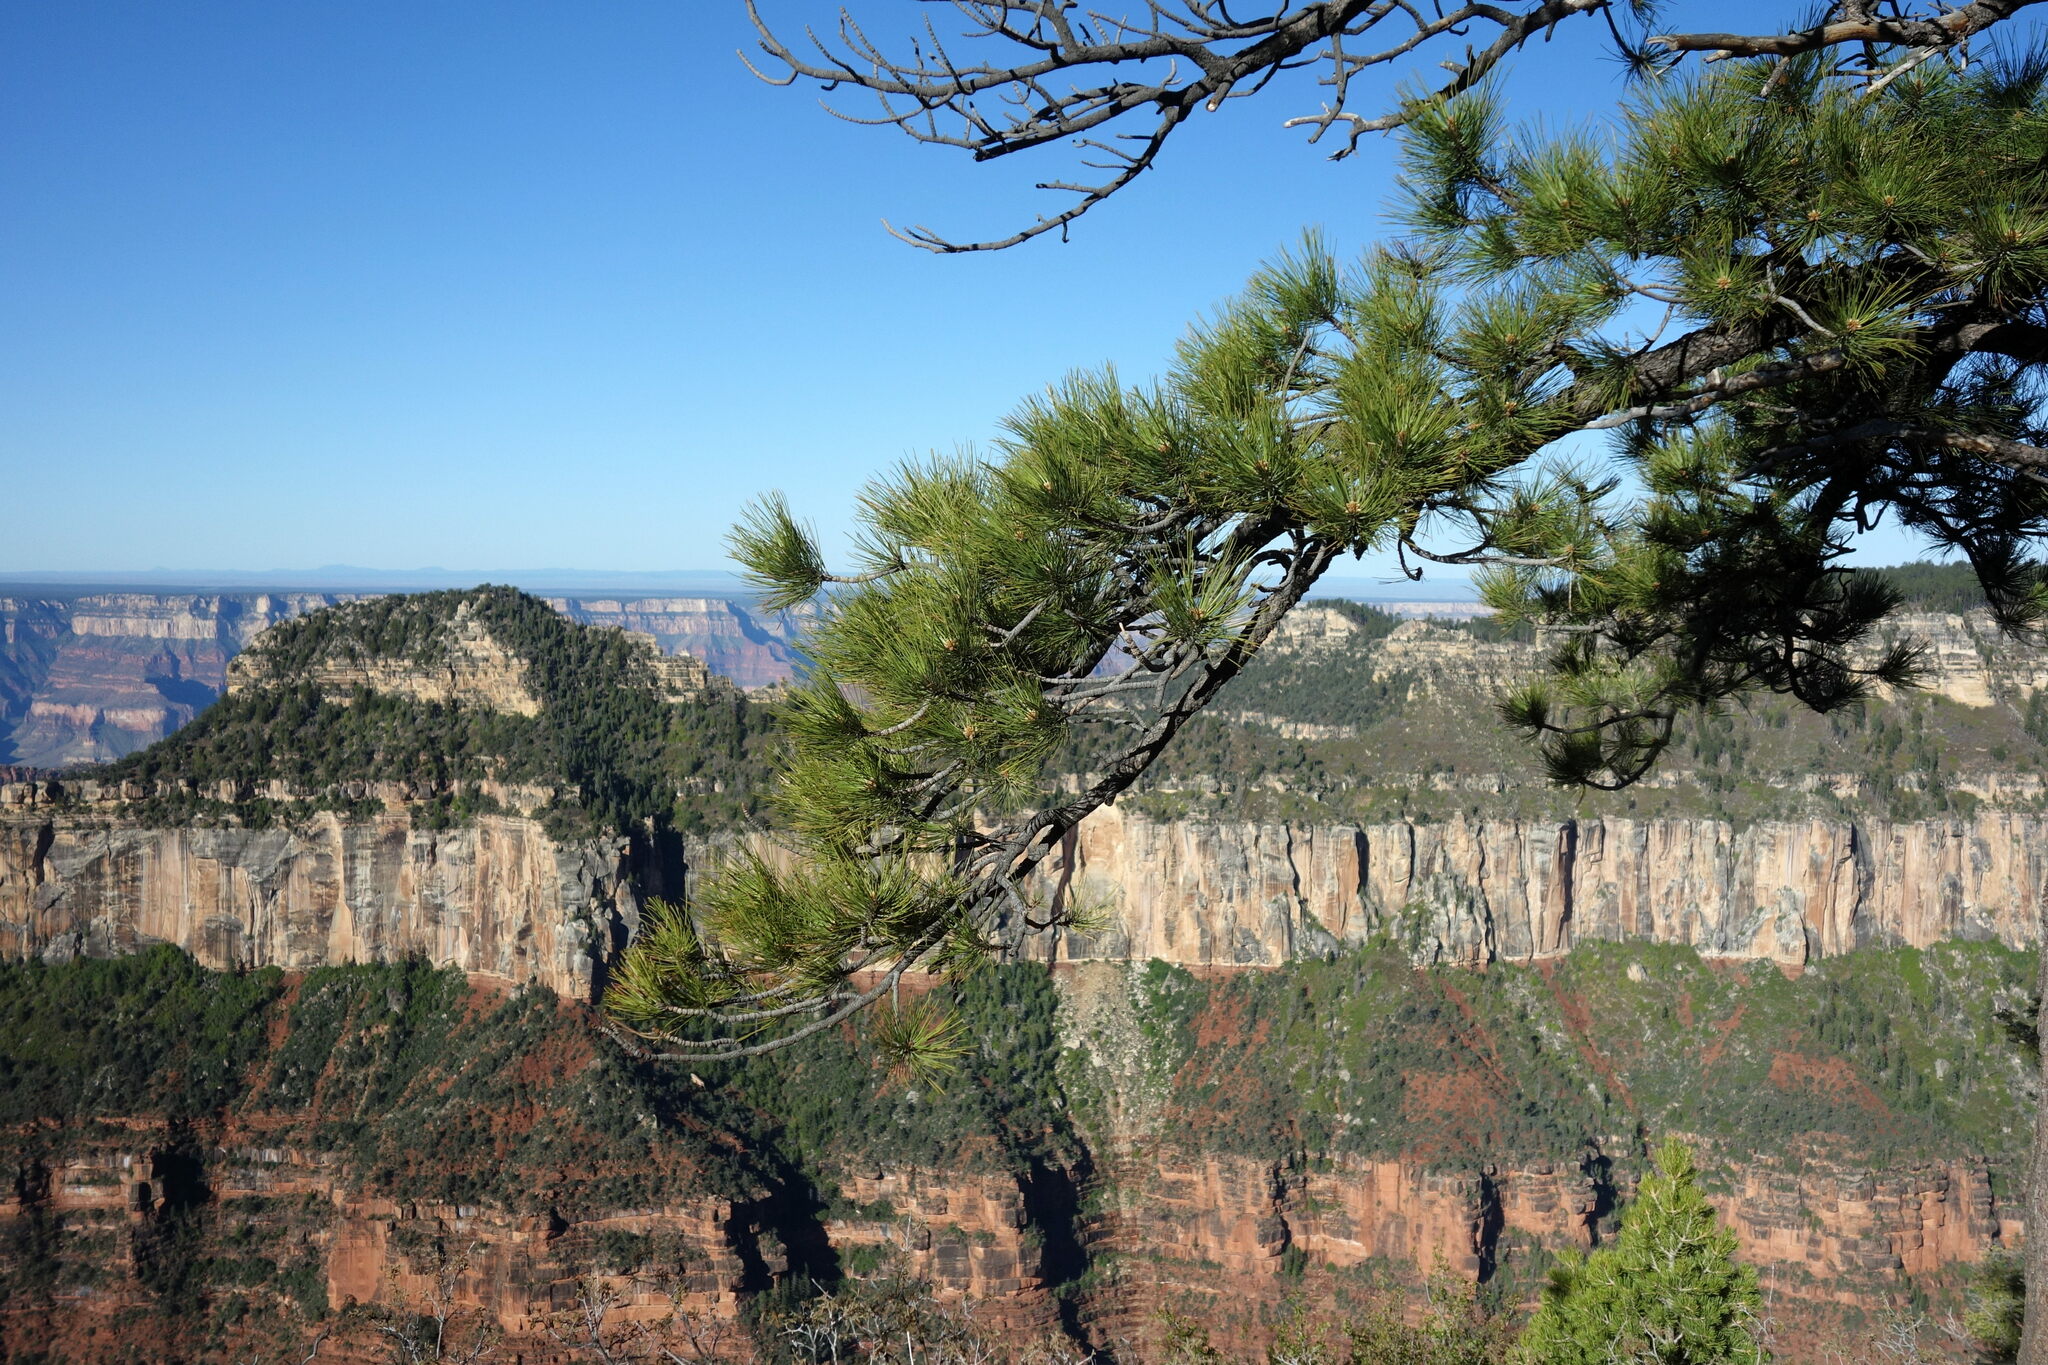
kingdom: Plantae
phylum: Tracheophyta
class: Pinopsida
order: Pinales
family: Pinaceae
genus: Pinus
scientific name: Pinus ponderosa
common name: Western yellow-pine
